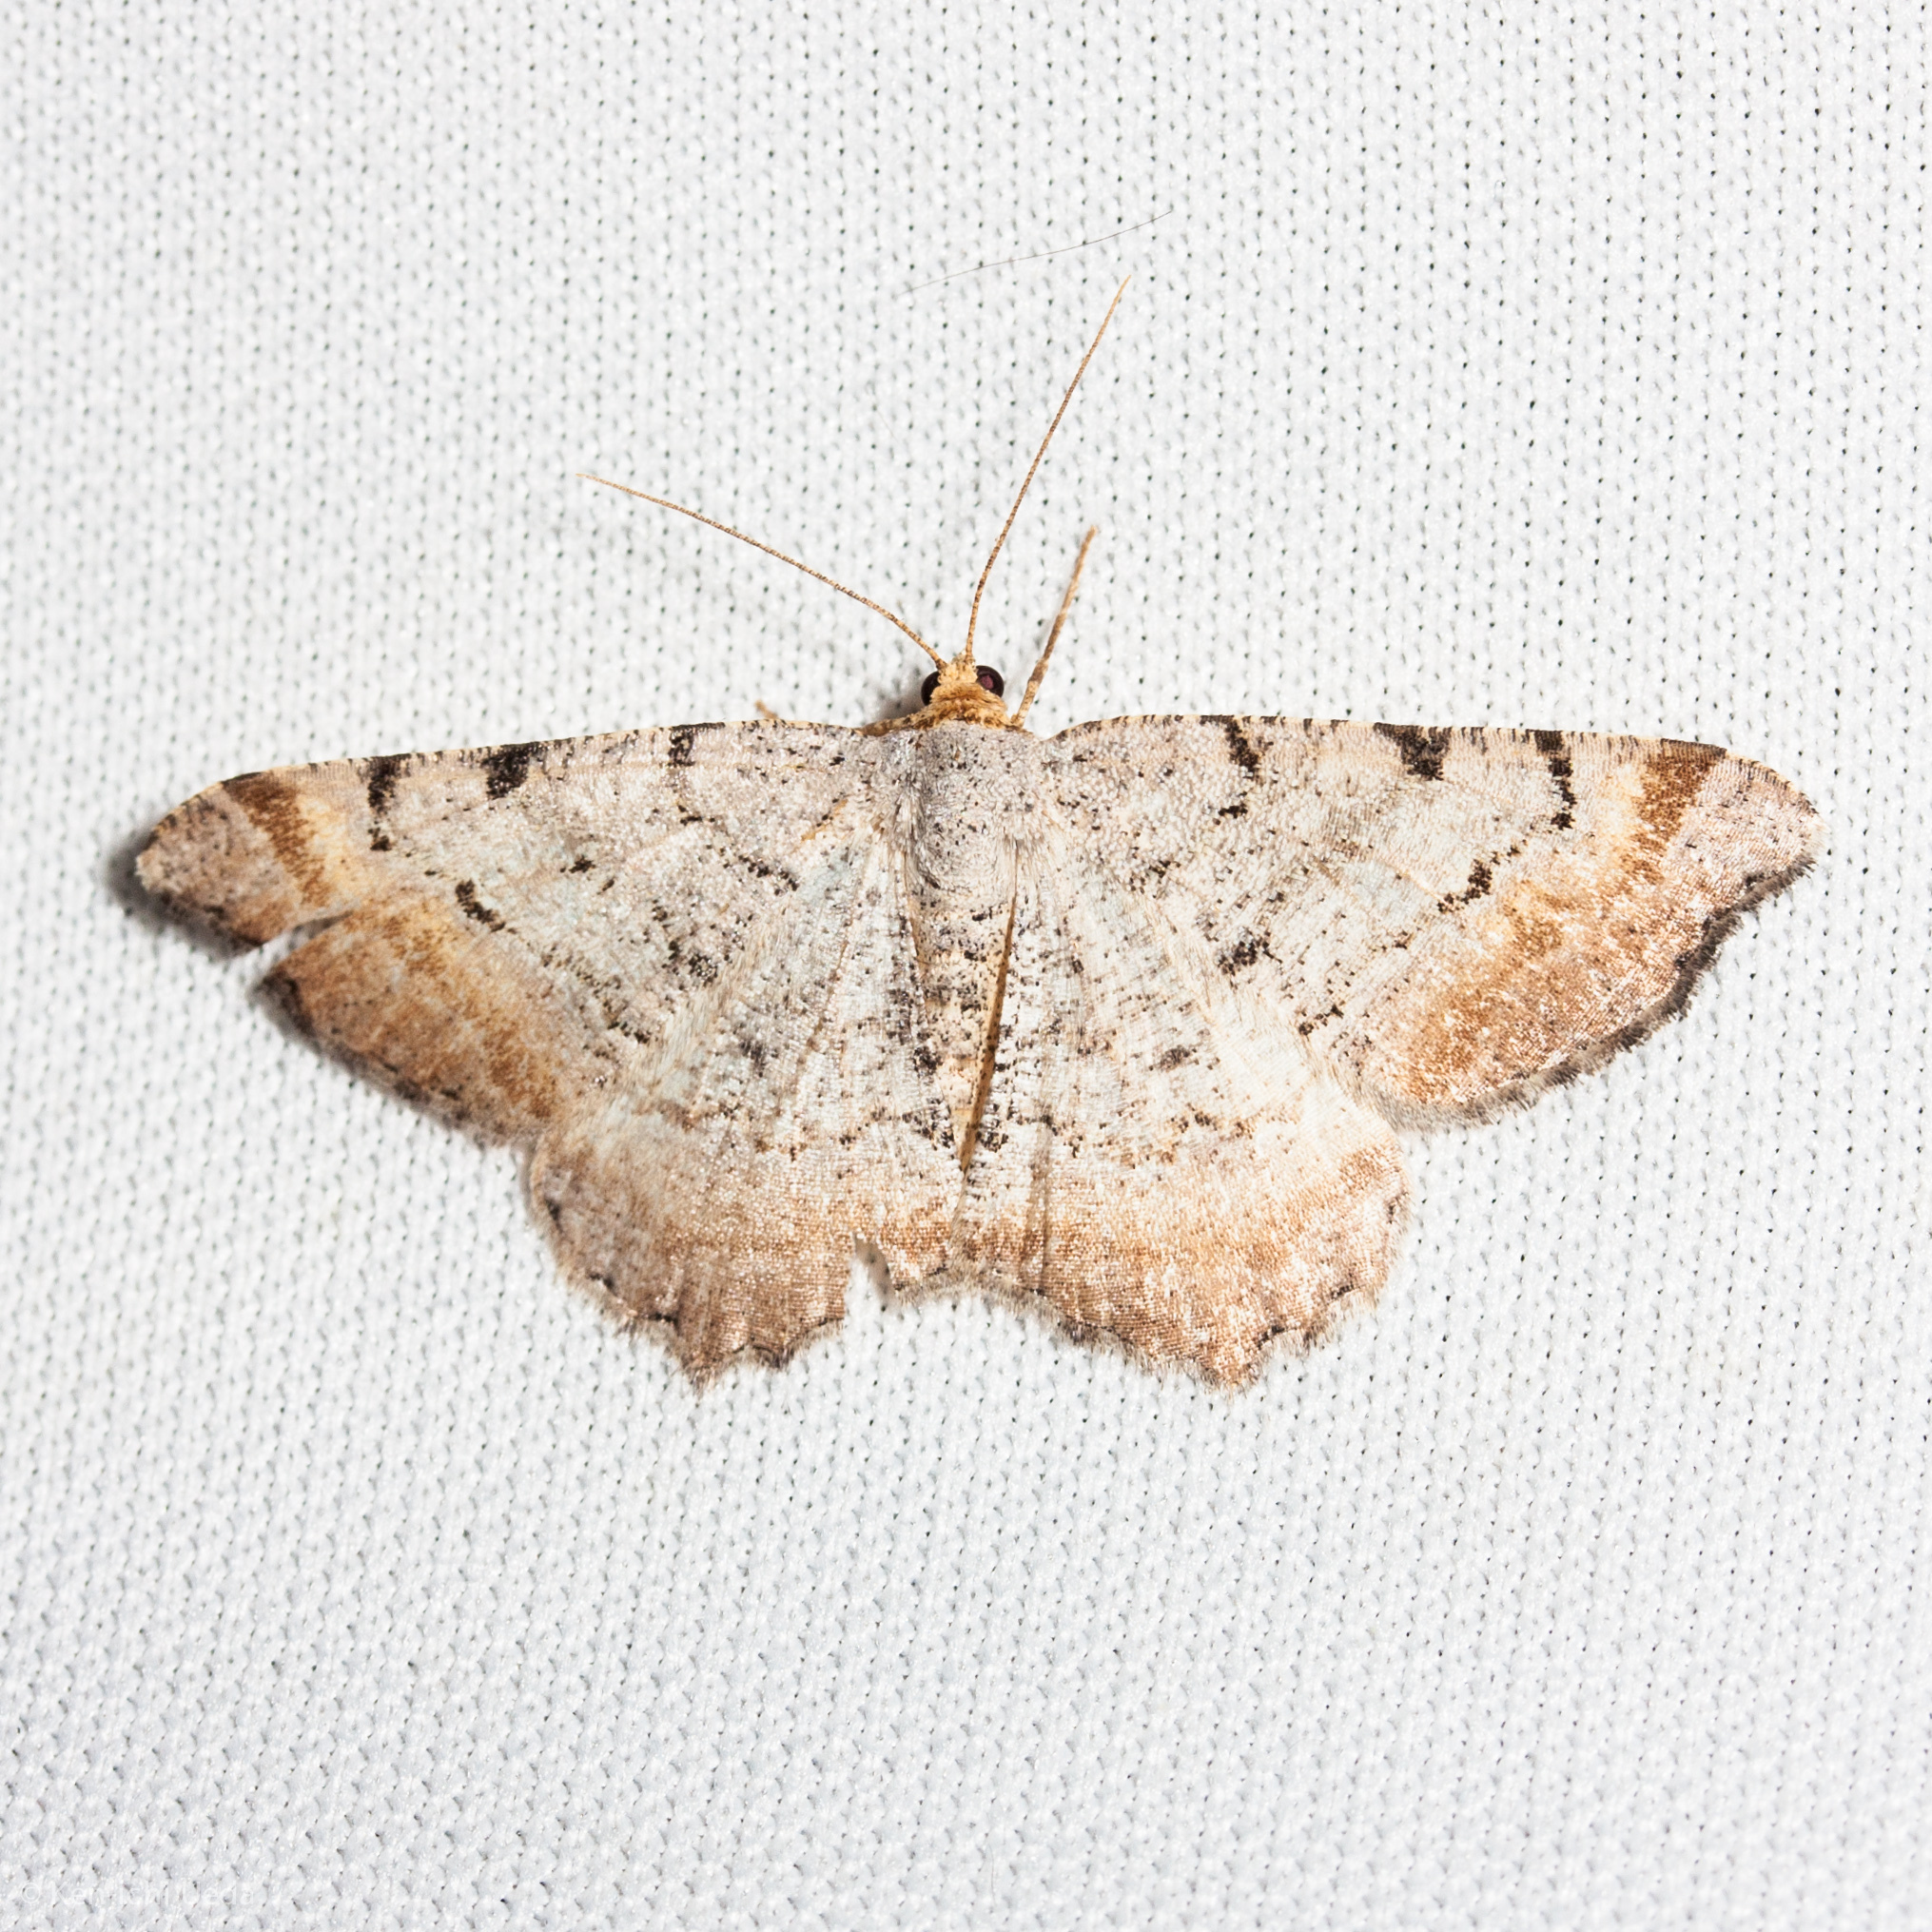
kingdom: Animalia
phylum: Arthropoda
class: Insecta
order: Lepidoptera
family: Geometridae
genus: Macaria
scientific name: Macaria adonis
